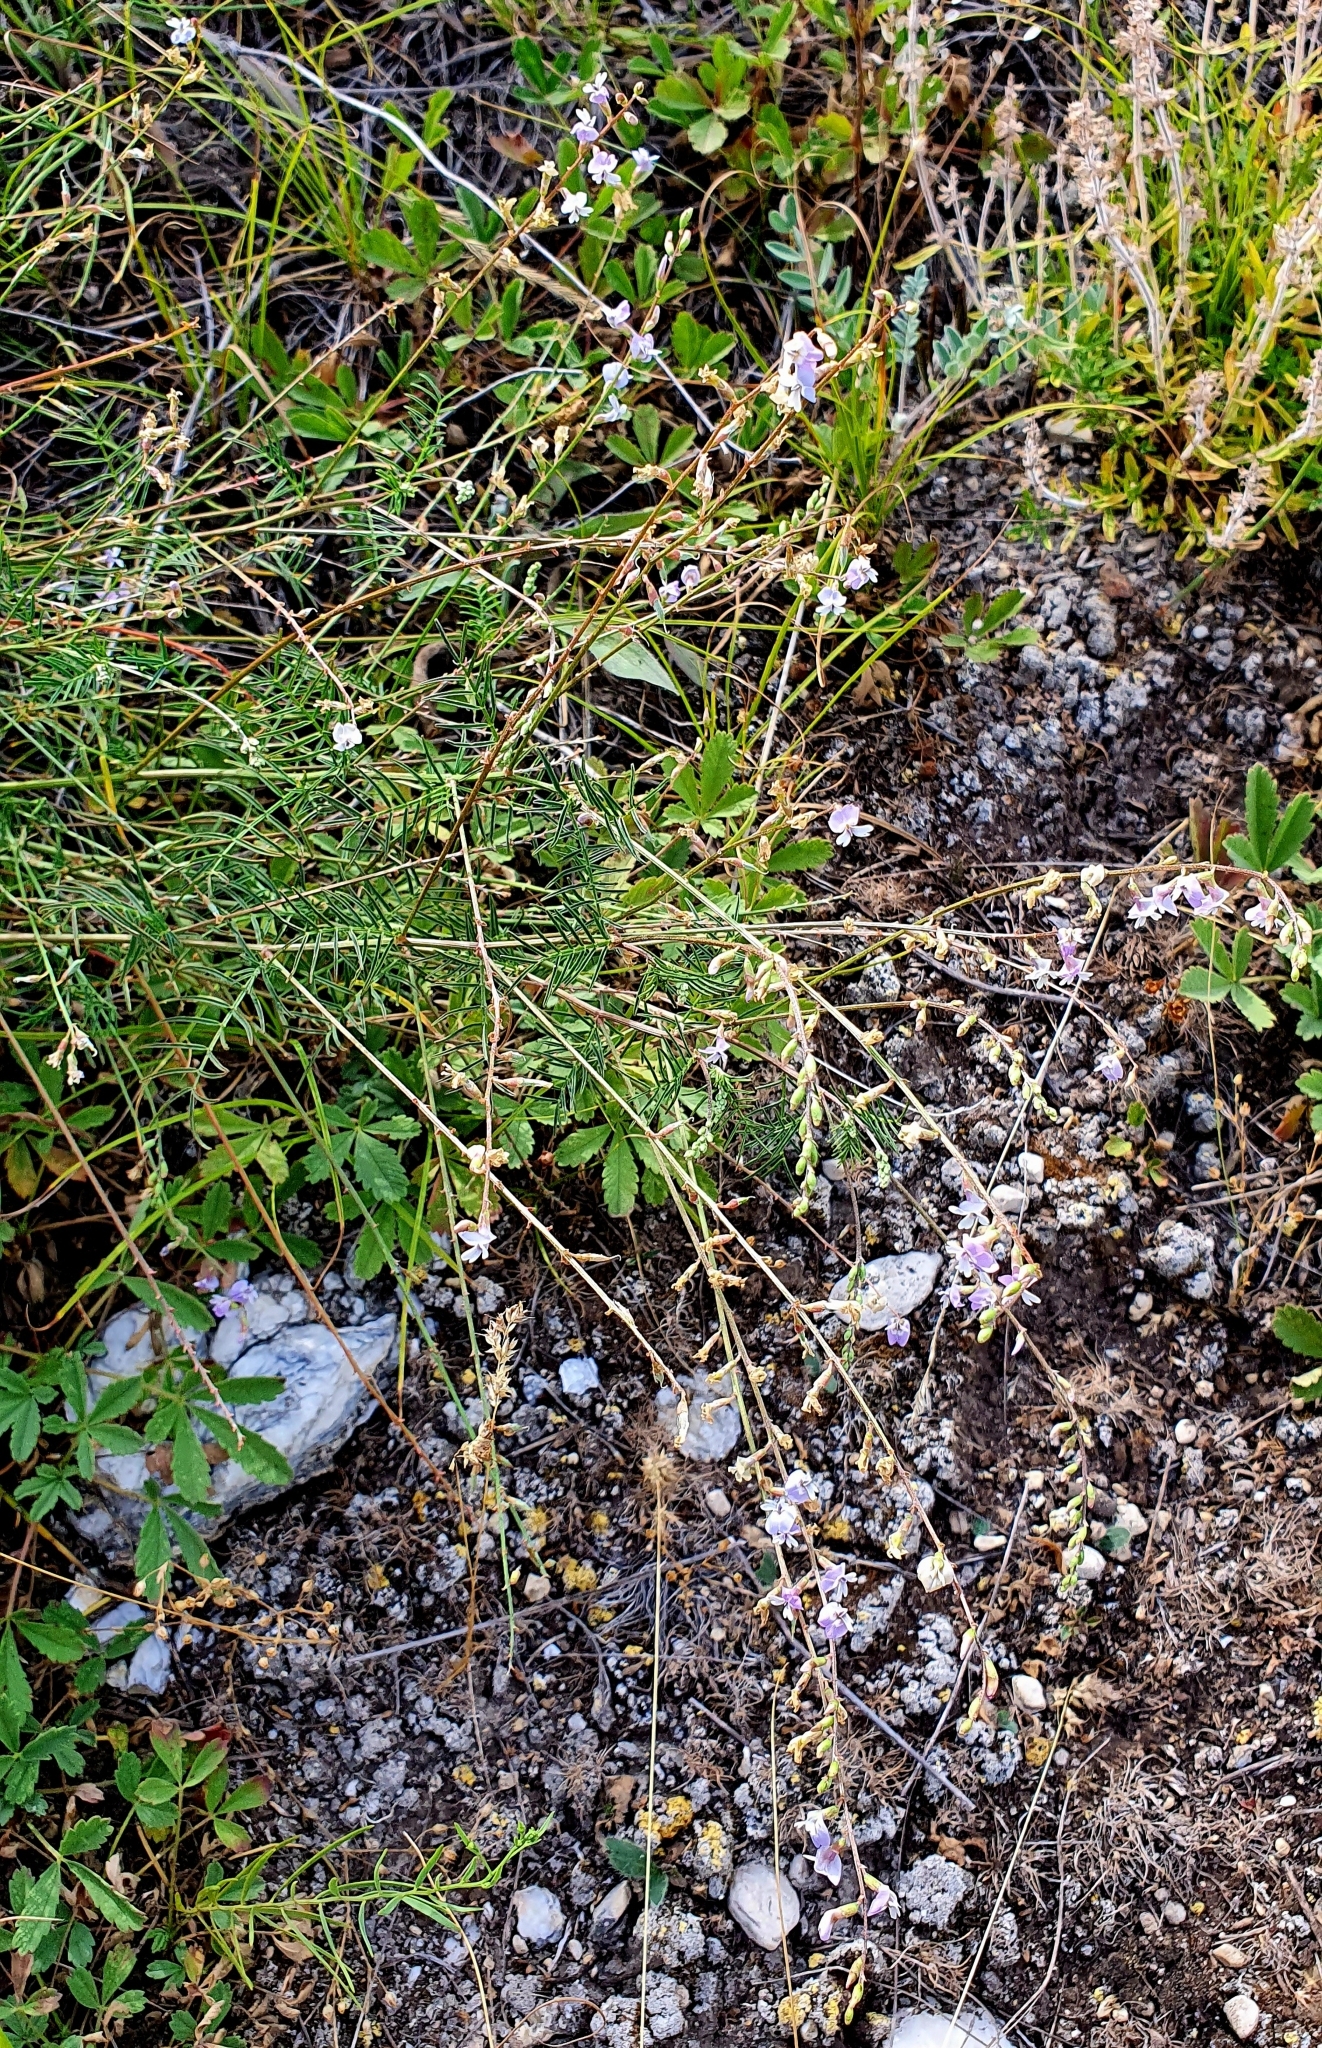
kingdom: Plantae
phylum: Tracheophyta
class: Magnoliopsida
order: Fabales
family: Fabaceae
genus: Astragalus
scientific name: Astragalus austriacus
